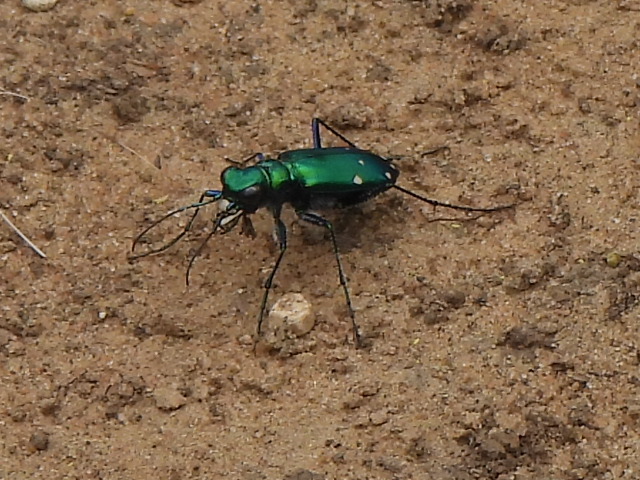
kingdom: Animalia
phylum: Arthropoda
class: Insecta
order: Coleoptera
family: Carabidae
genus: Cicindela
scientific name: Cicindela sexguttata
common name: Six-spotted tiger beetle
